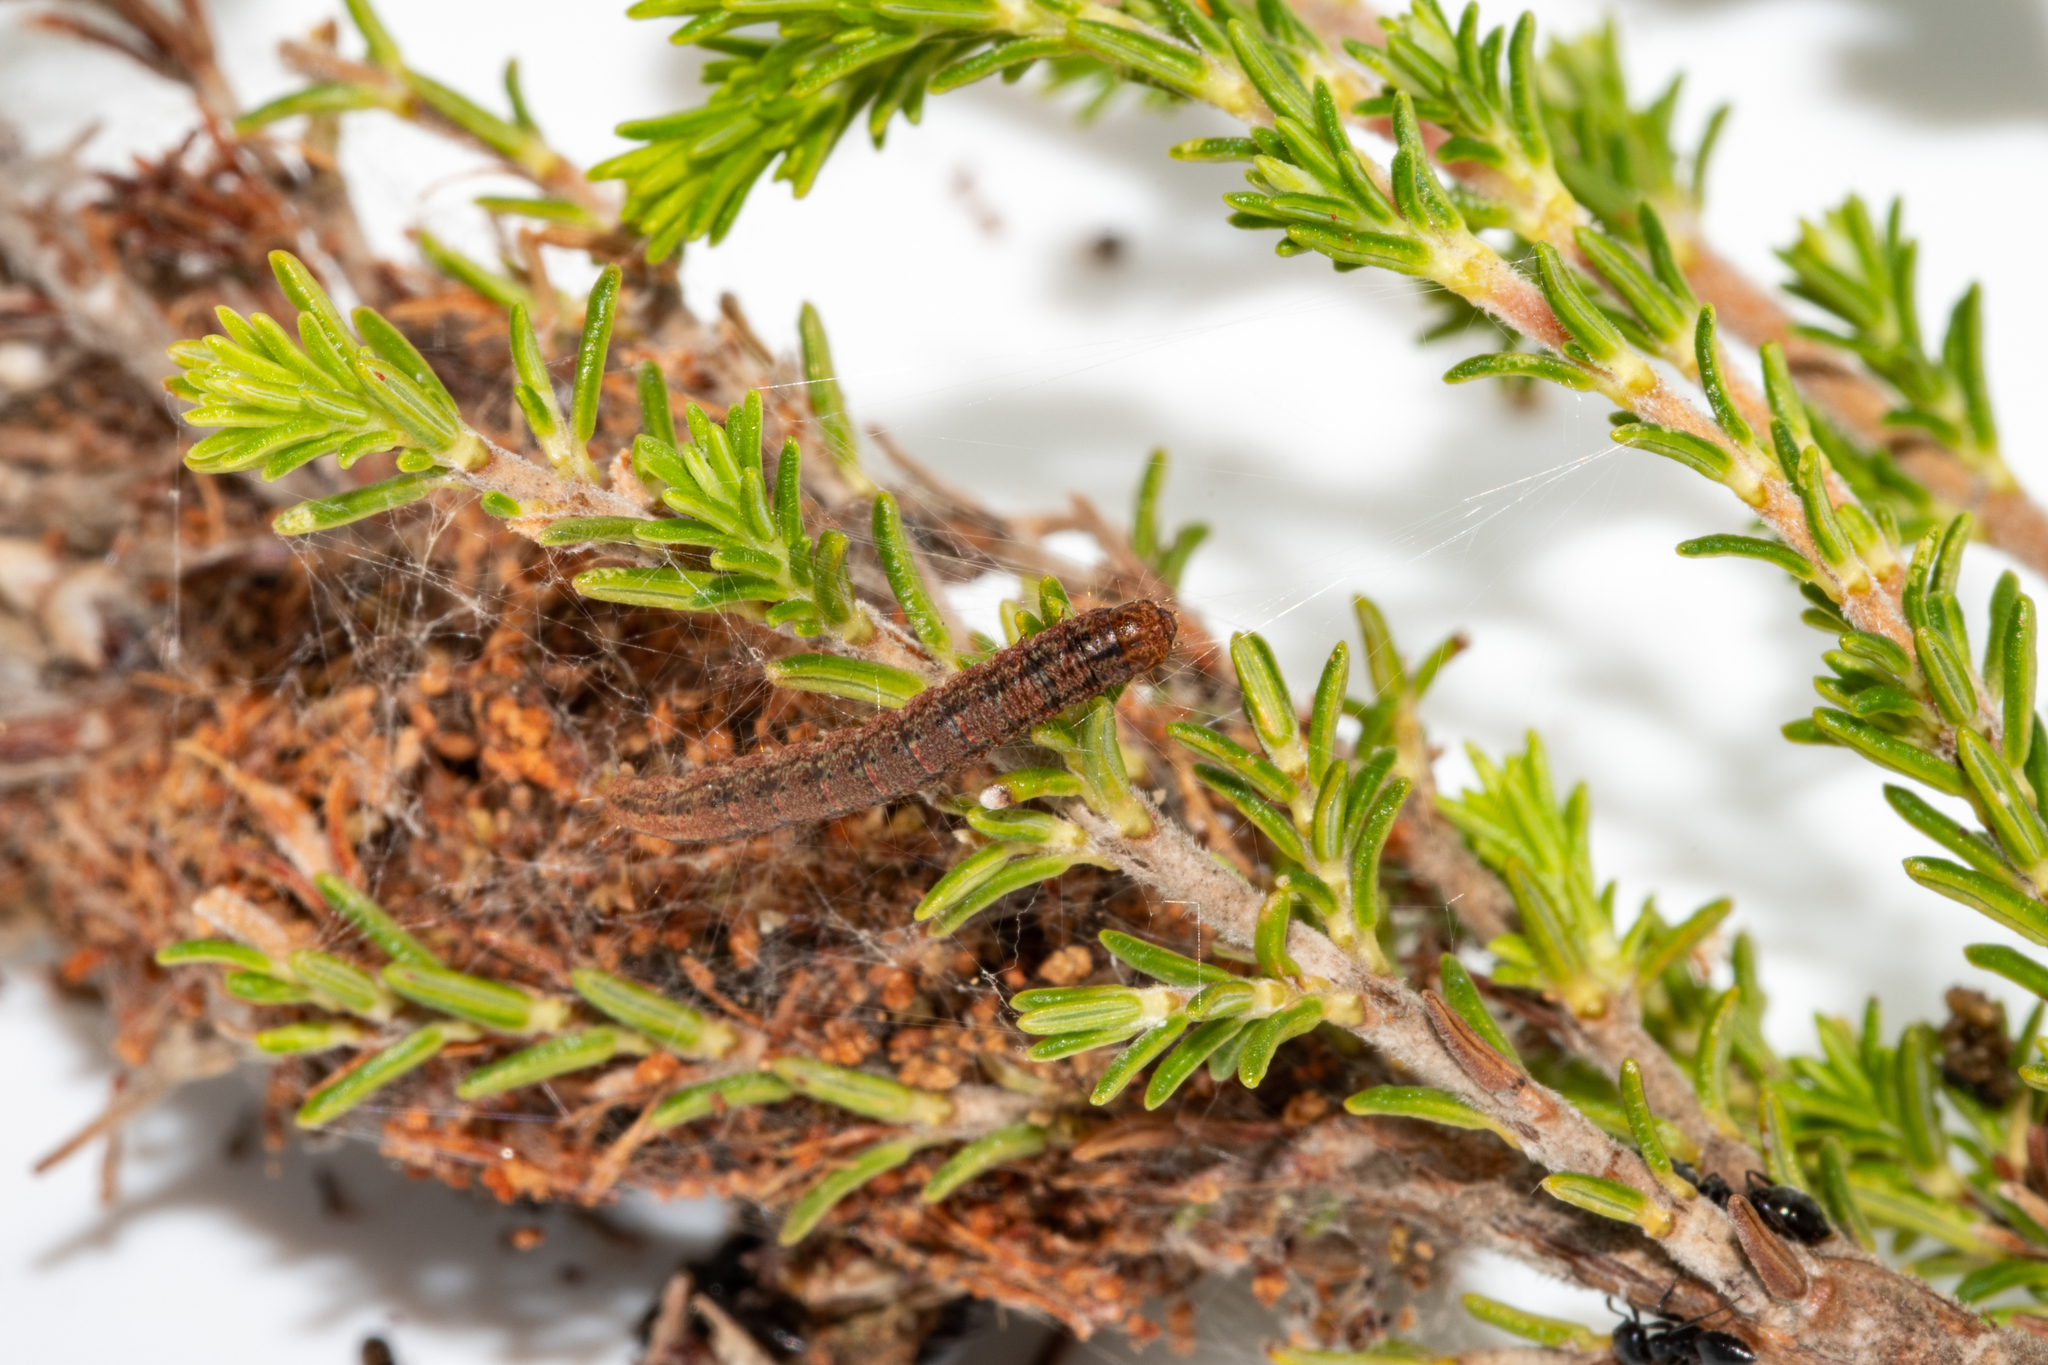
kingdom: Animalia
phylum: Arthropoda
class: Insecta
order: Hymenoptera
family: Formicidae
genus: Crematogaster
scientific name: Crematogaster peringueyi
